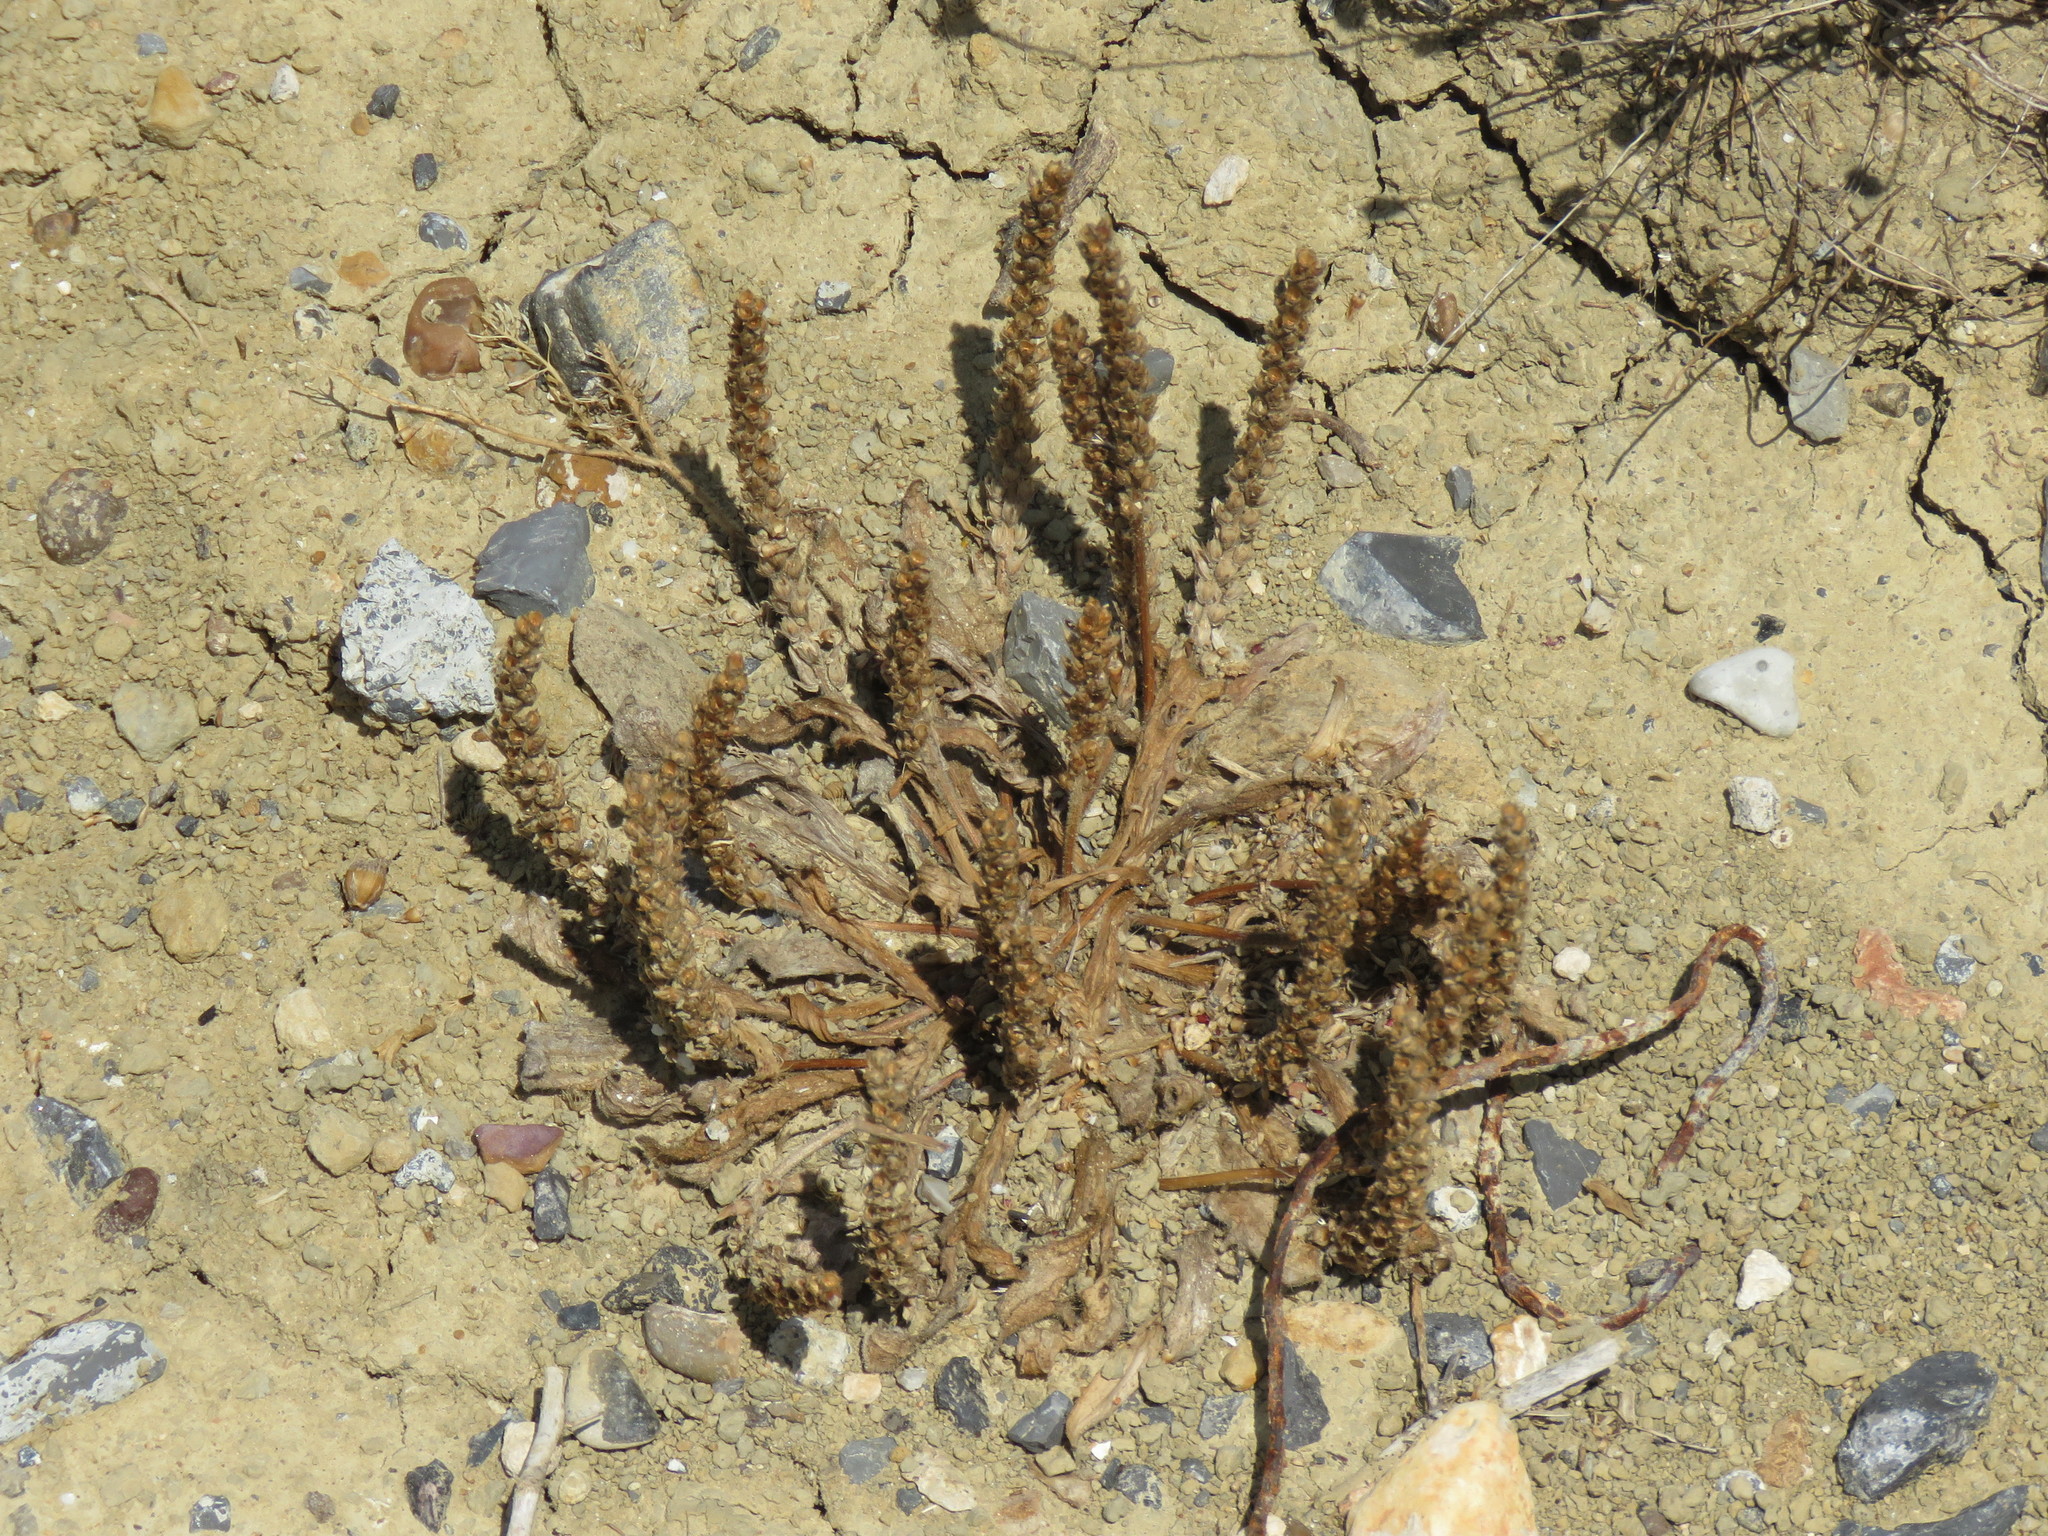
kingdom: Plantae
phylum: Tracheophyta
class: Magnoliopsida
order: Lamiales
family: Plantaginaceae
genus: Plantago
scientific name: Plantago rhodosperma
